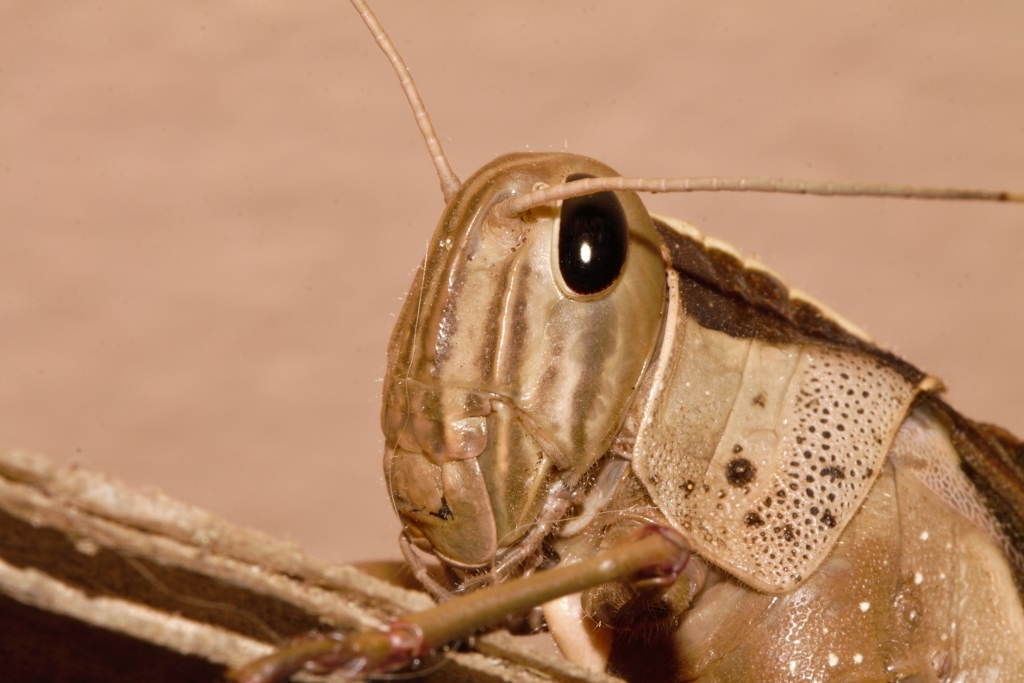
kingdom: Animalia
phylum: Arthropoda
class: Insecta
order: Orthoptera
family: Acrididae
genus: Acanthacris
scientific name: Acanthacris ruficornis
